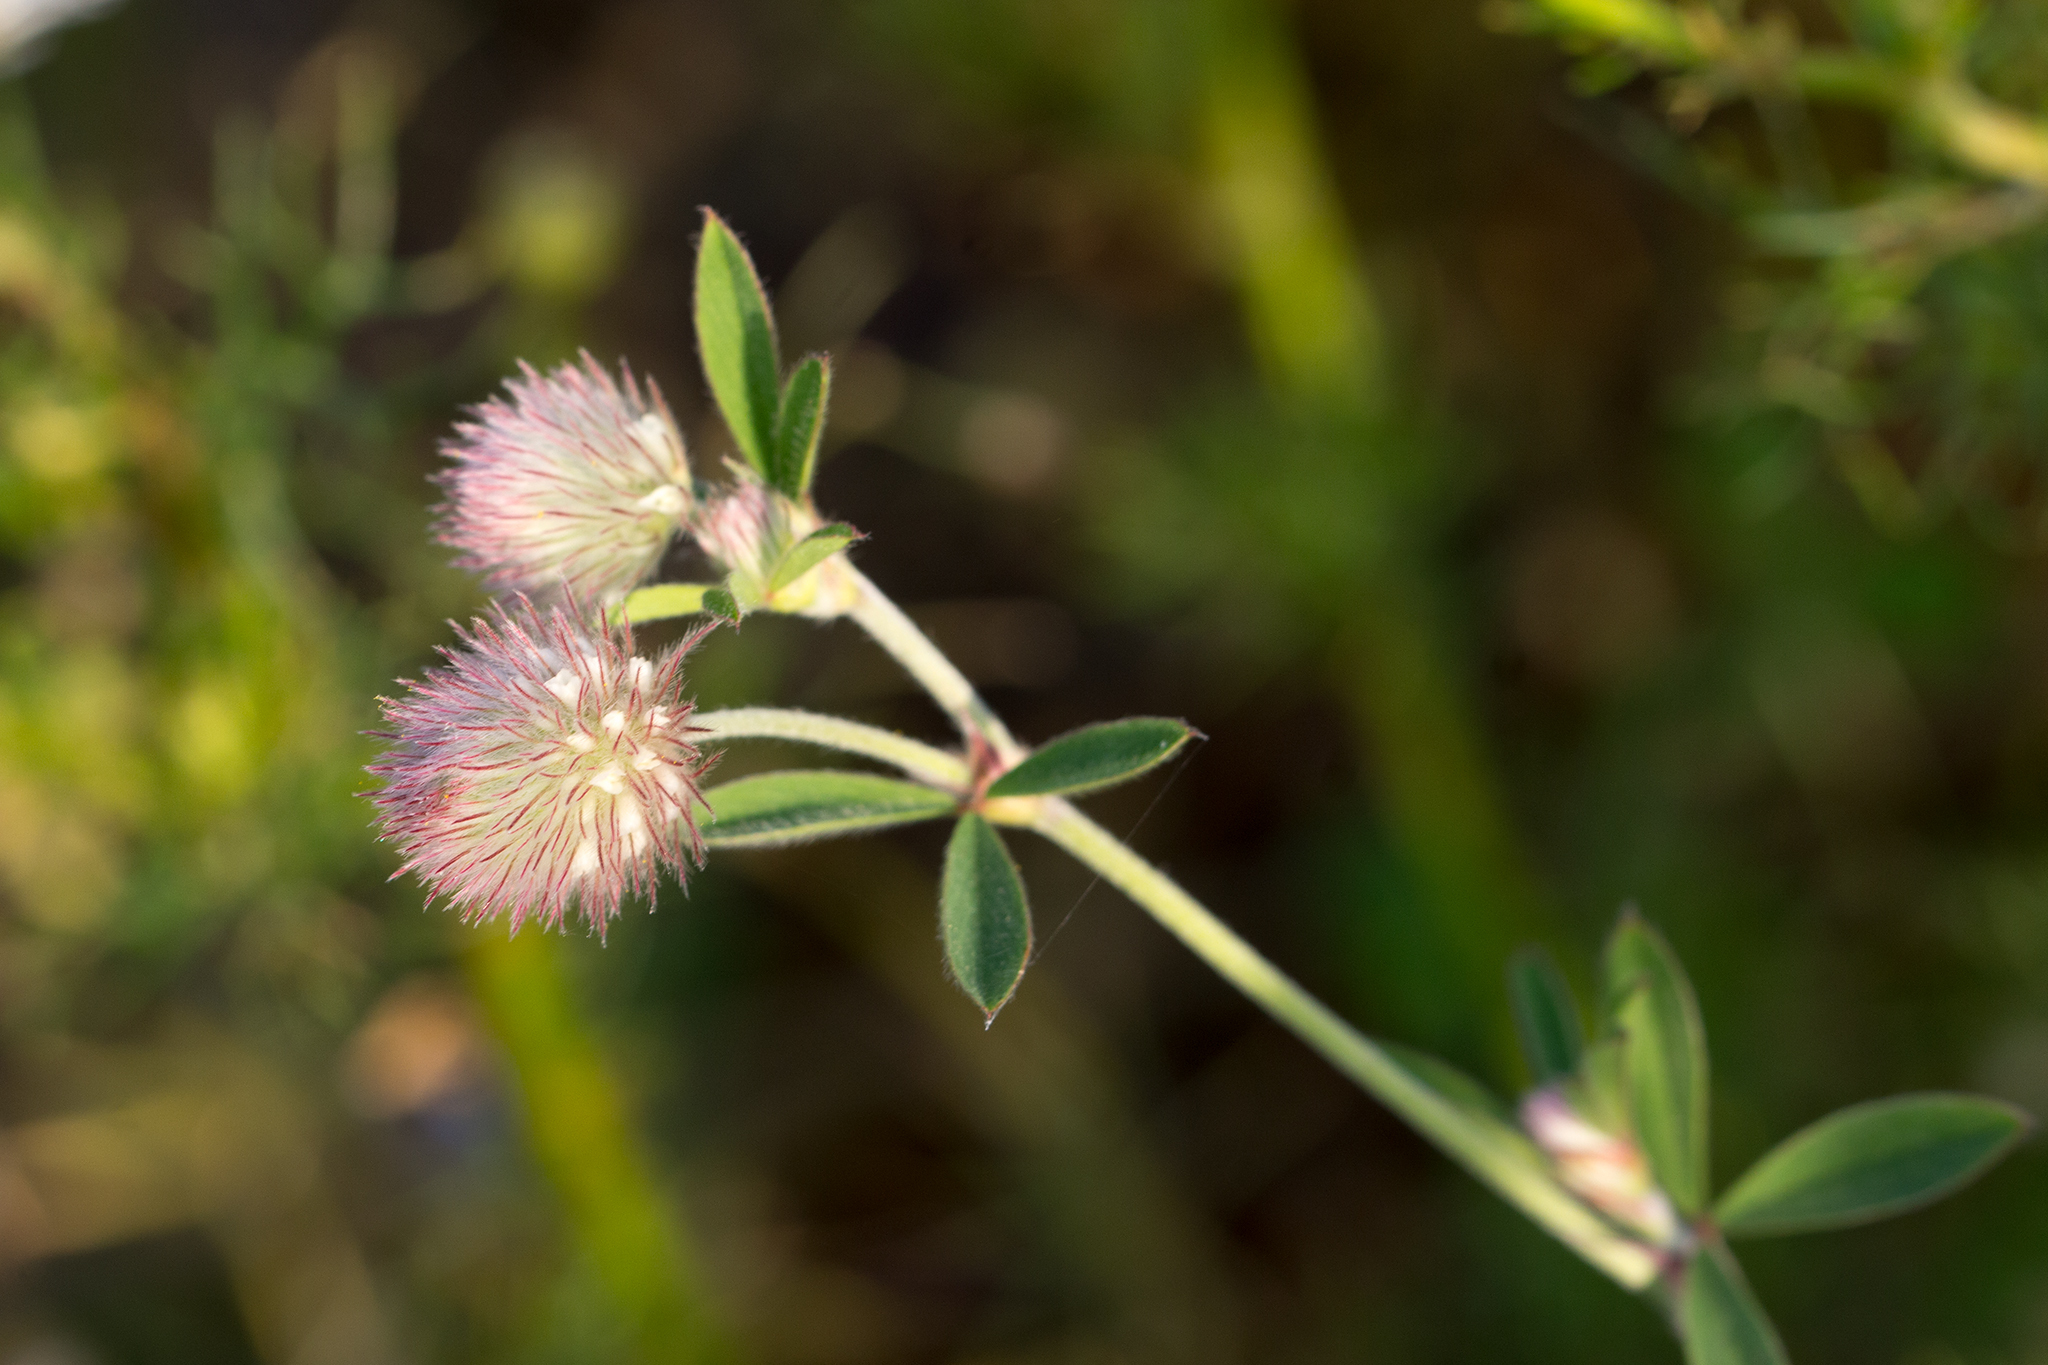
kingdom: Plantae
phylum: Tracheophyta
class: Magnoliopsida
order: Fabales
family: Fabaceae
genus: Trifolium
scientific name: Trifolium arvense
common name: Hare's-foot clover
